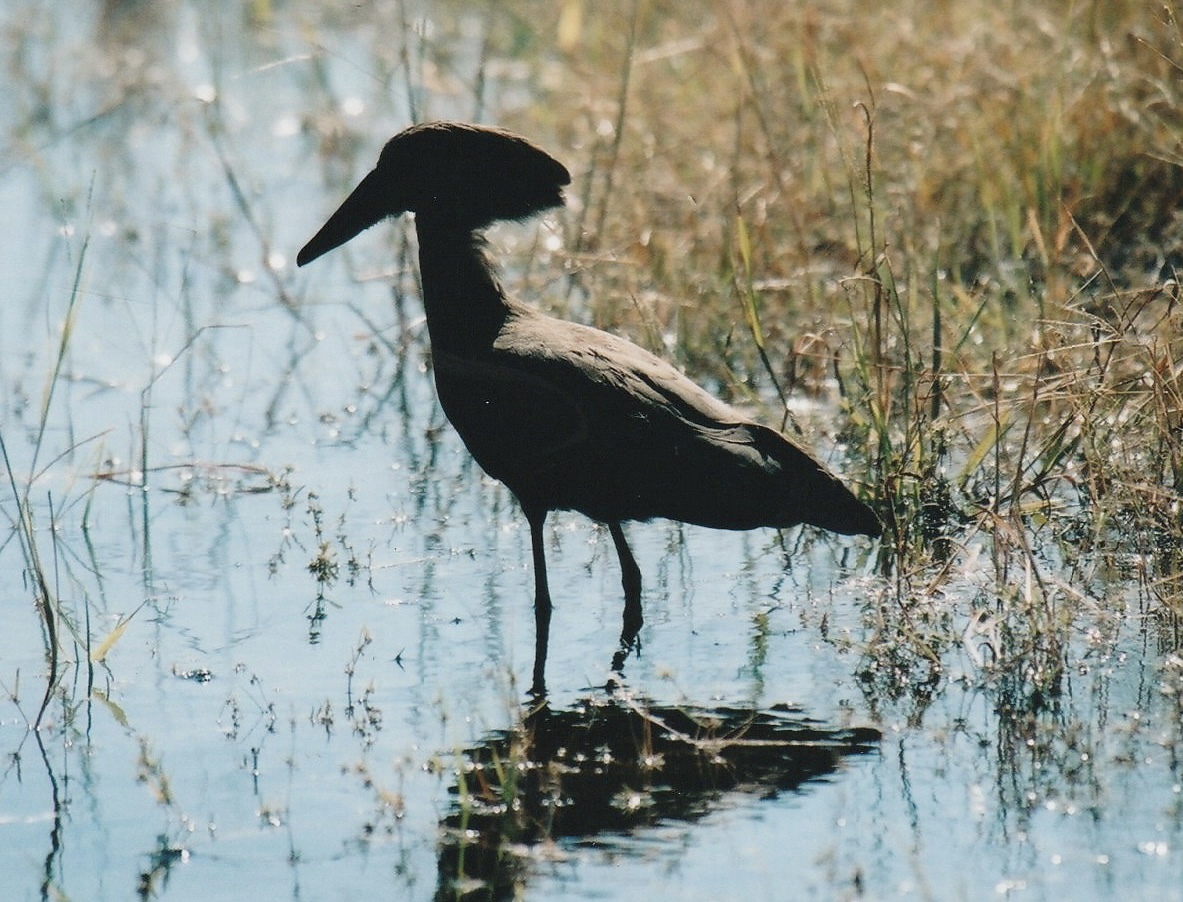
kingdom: Animalia
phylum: Chordata
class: Aves
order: Pelecaniformes
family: Scopidae
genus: Scopus
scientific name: Scopus umbretta
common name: Hamerkop
